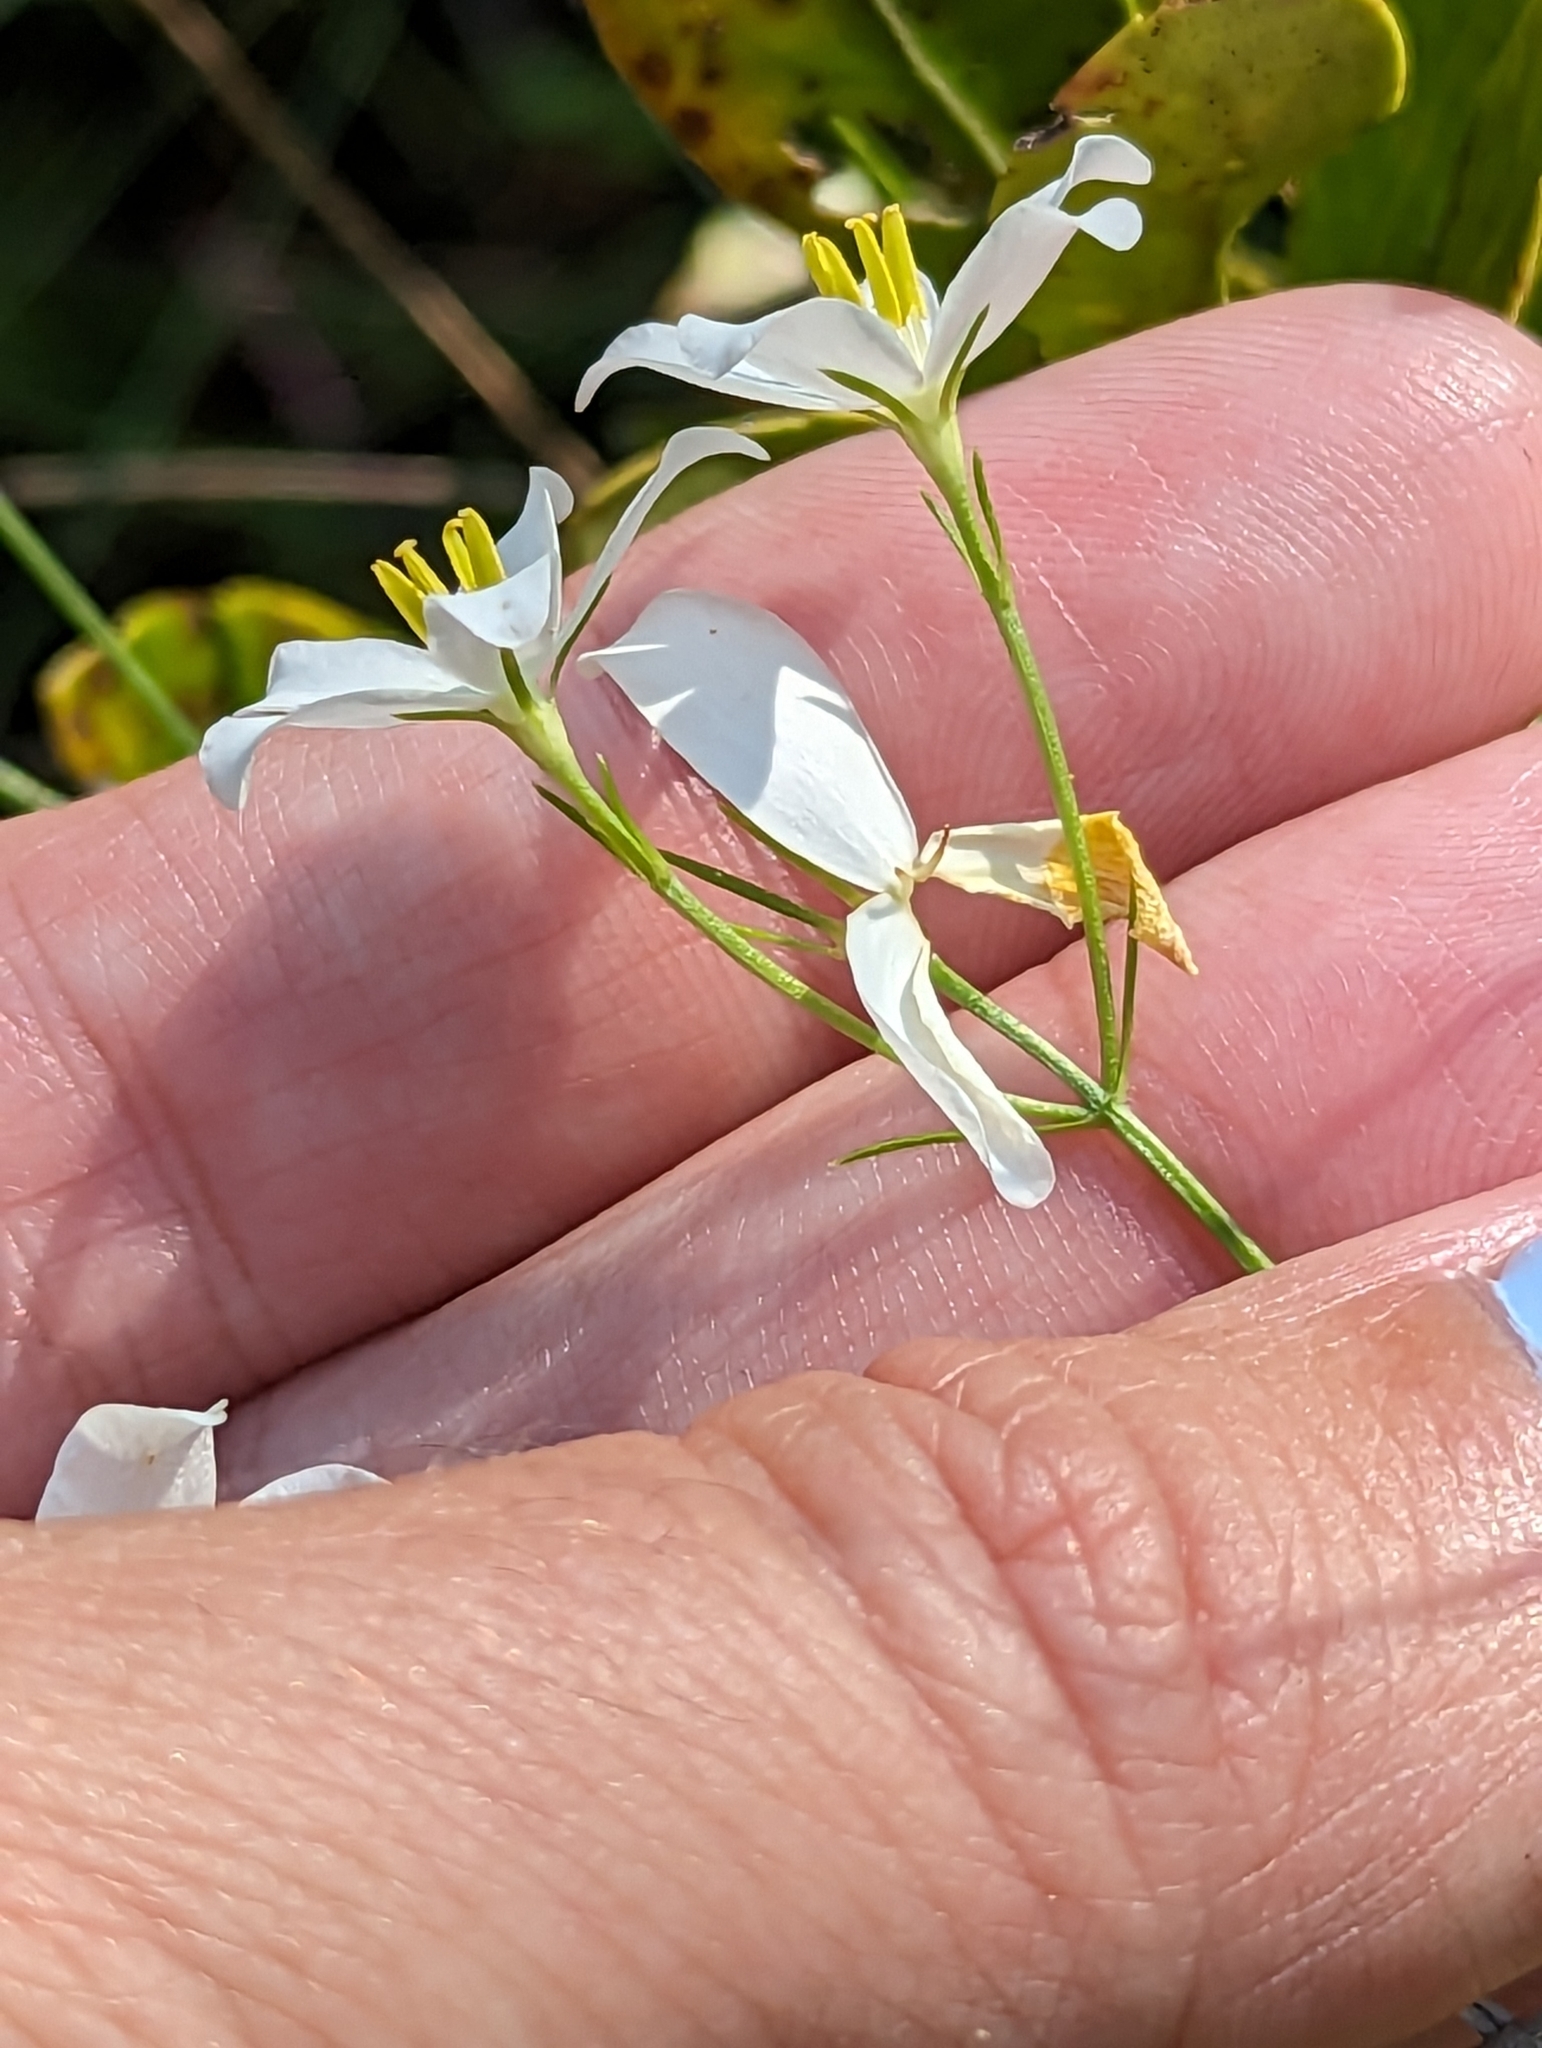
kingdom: Plantae
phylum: Tracheophyta
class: Magnoliopsida
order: Gentianales
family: Gentianaceae
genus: Sabatia
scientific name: Sabatia difformis
